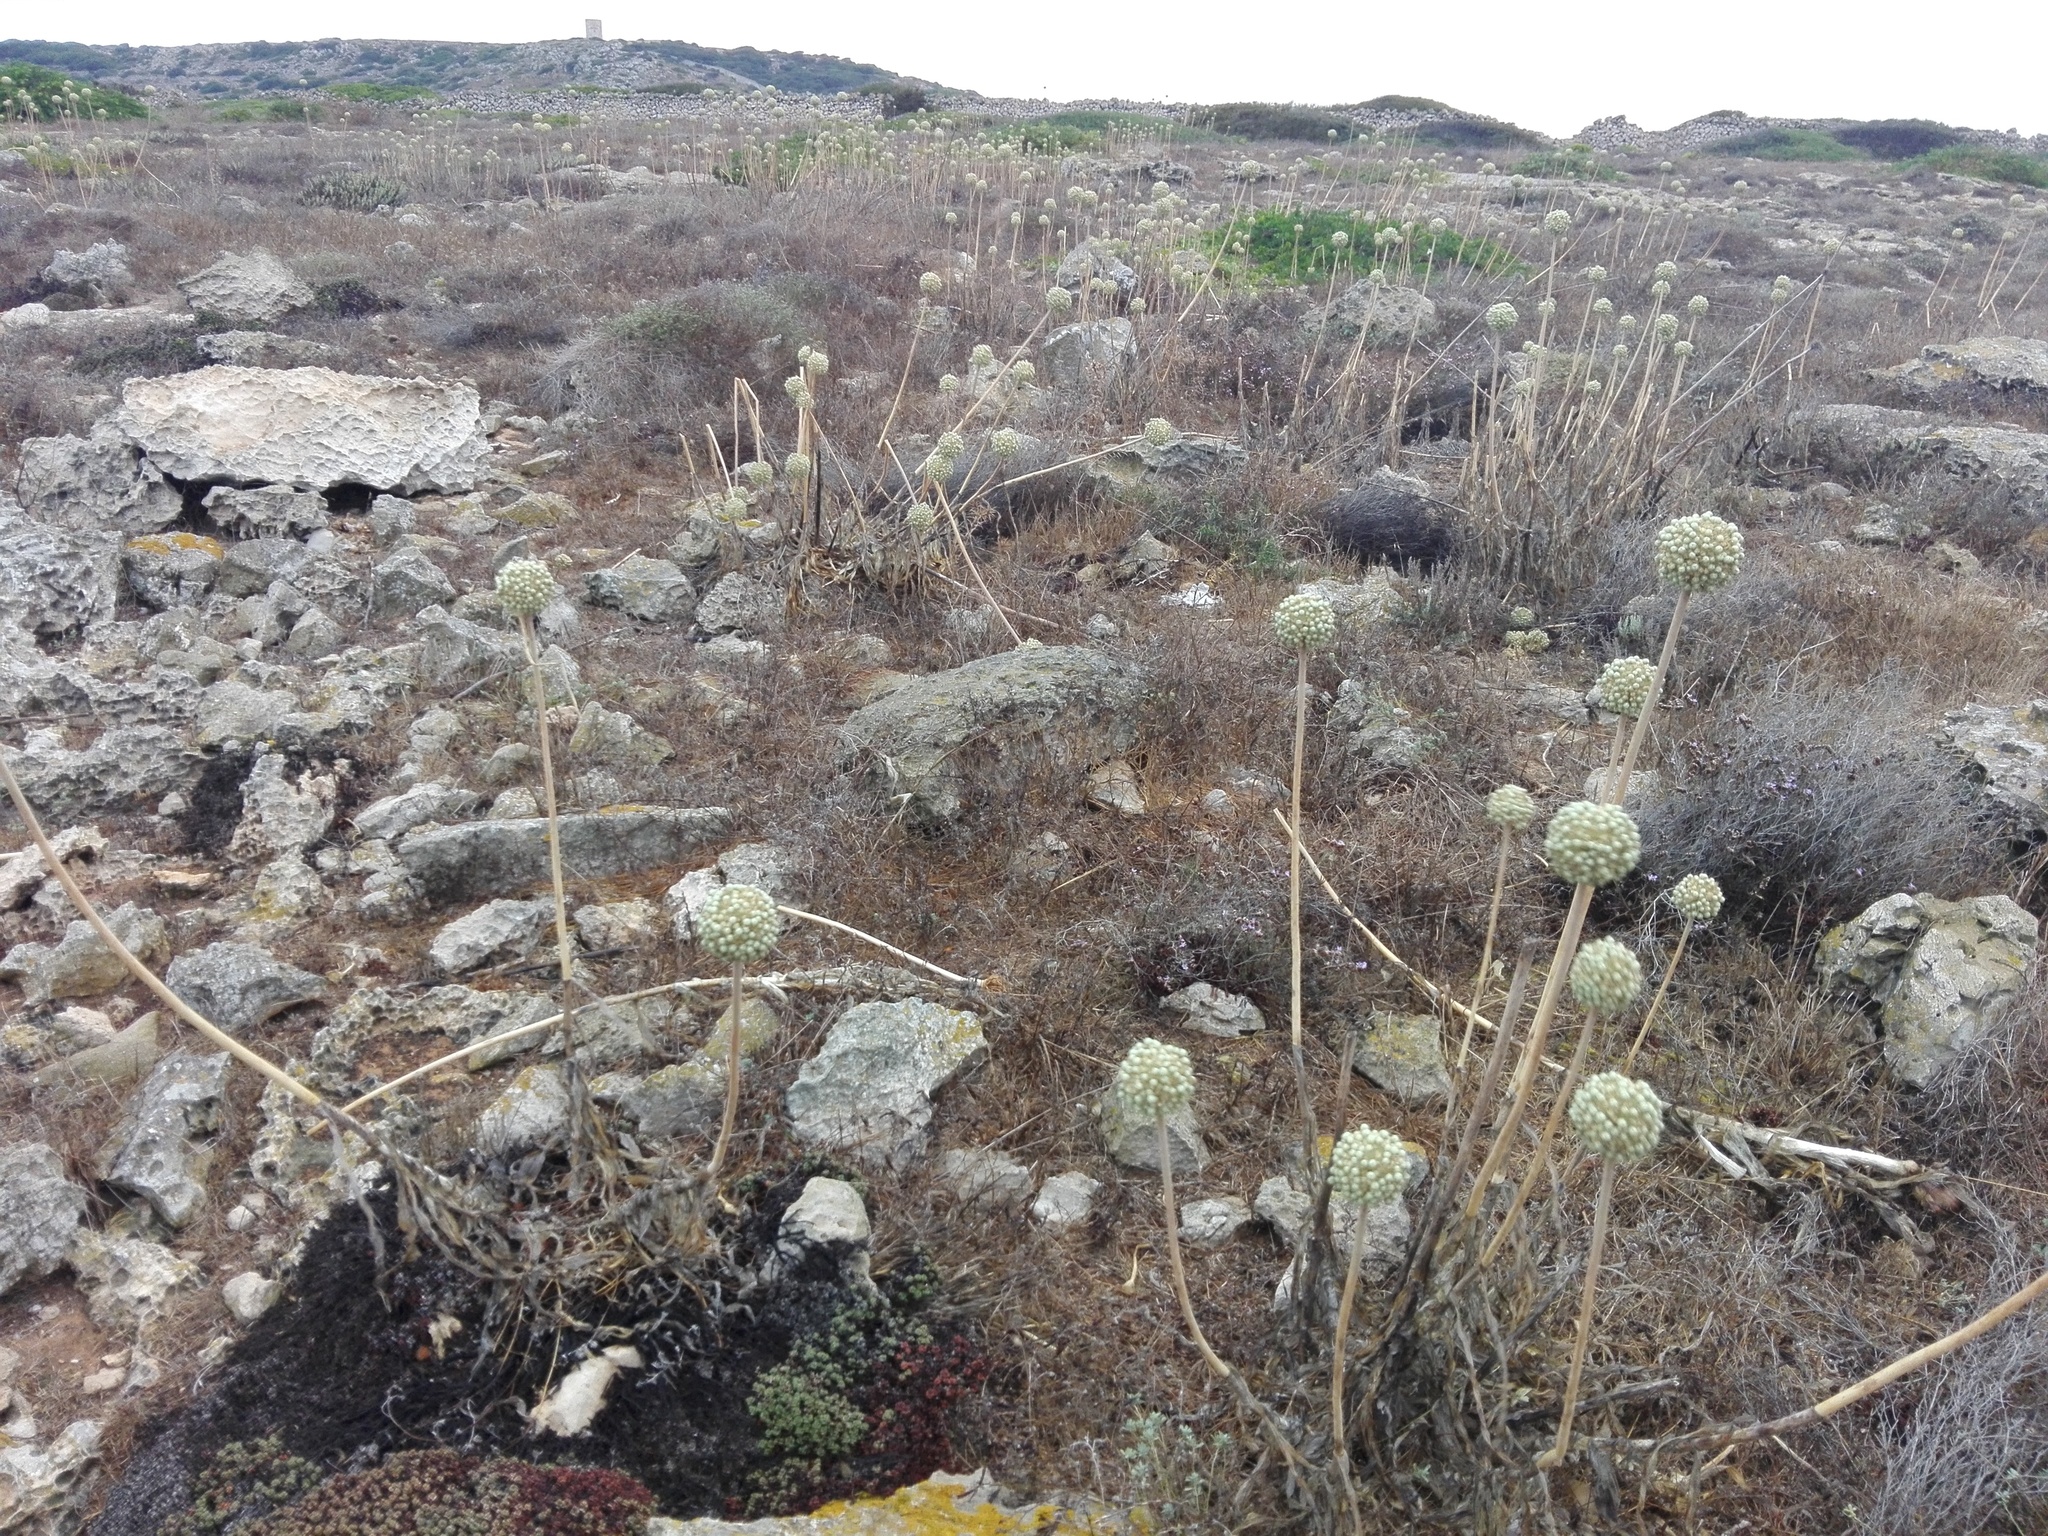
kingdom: Plantae
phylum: Tracheophyta
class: Liliopsida
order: Asparagales
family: Amaryllidaceae
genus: Allium
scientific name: Allium commutatum
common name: Sea garlic
